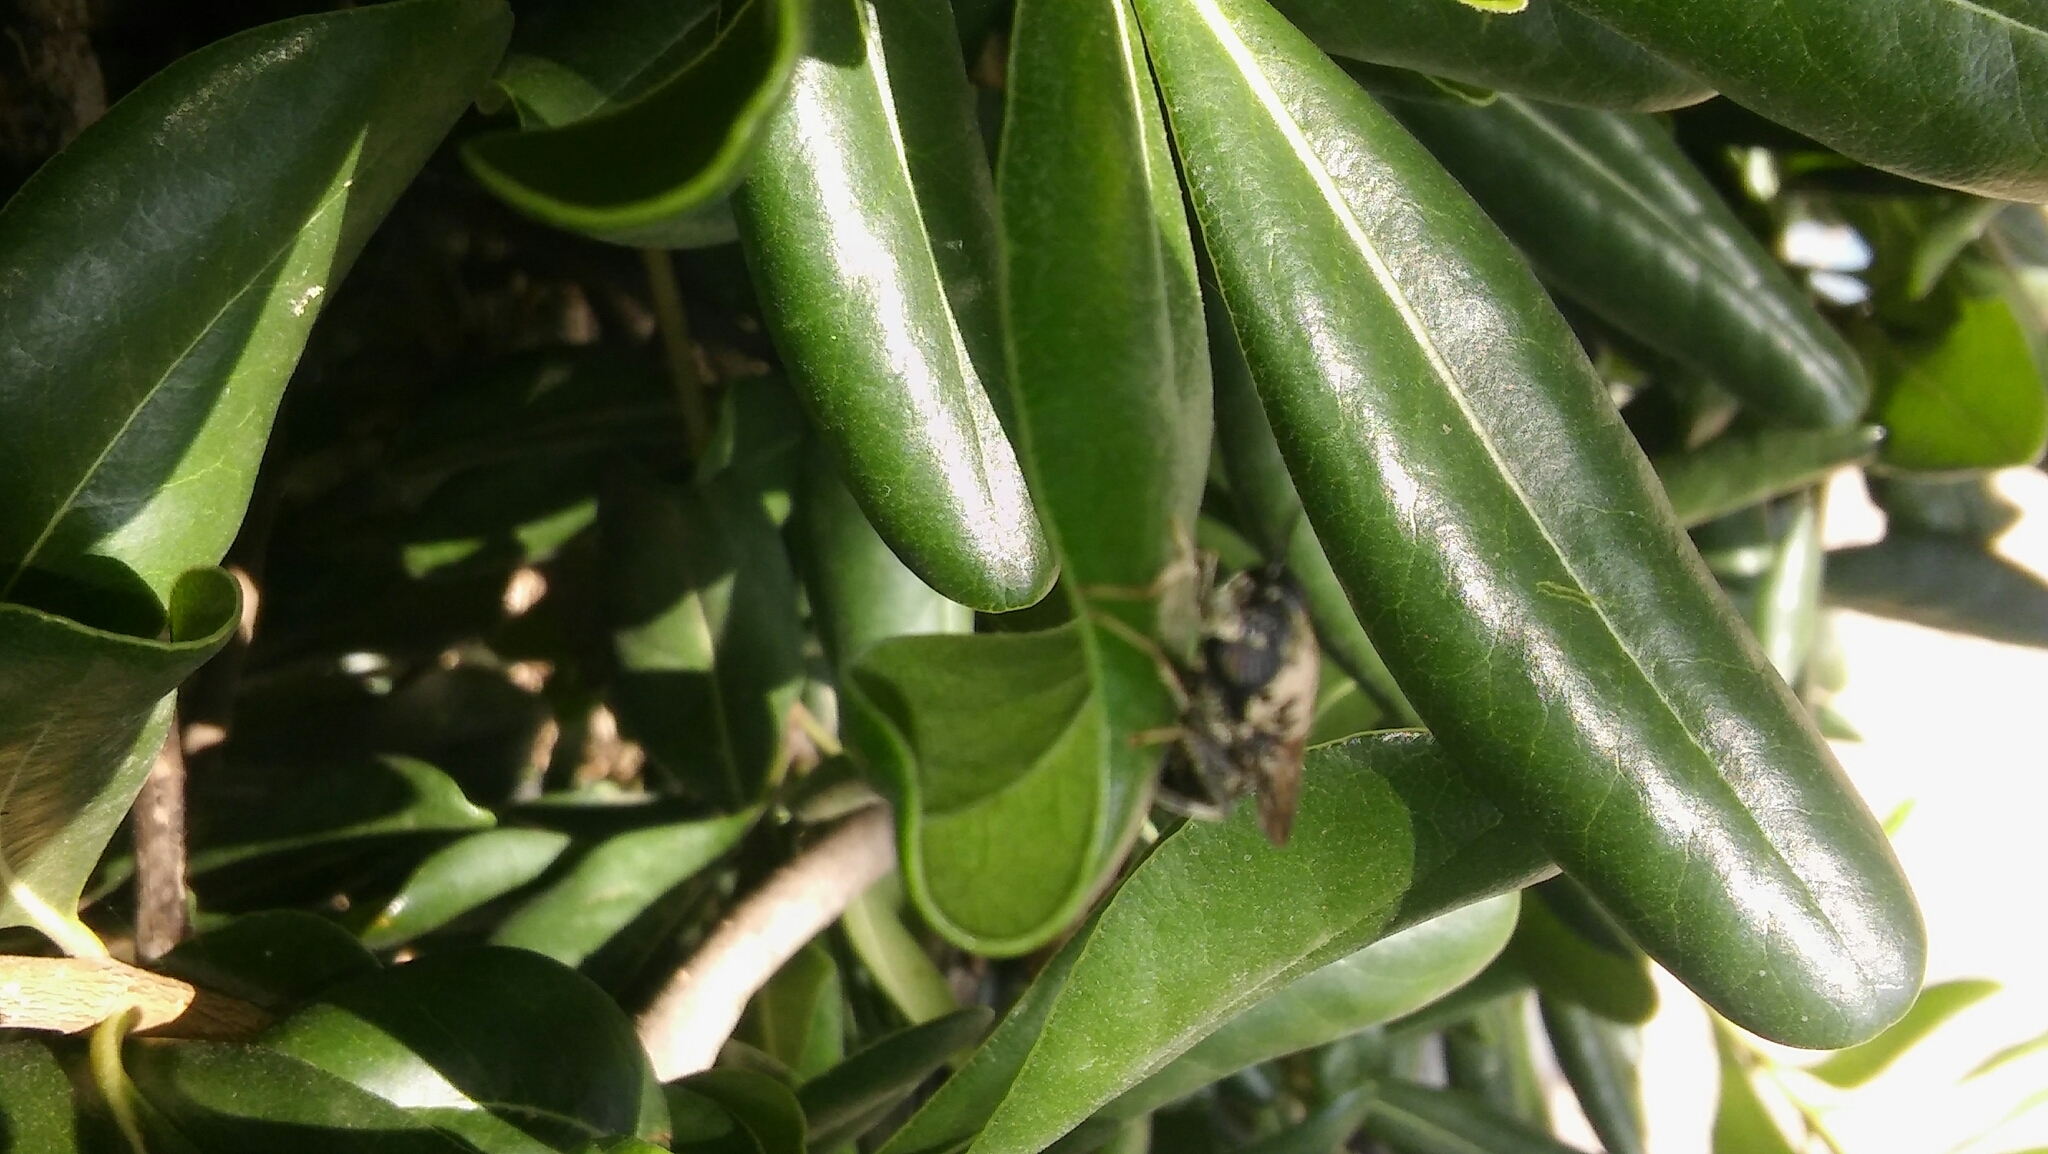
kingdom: Animalia
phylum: Arthropoda
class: Insecta
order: Diptera
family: Stratiomyidae
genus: Hermetia
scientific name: Hermetia illucens
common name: Black soldier fly
